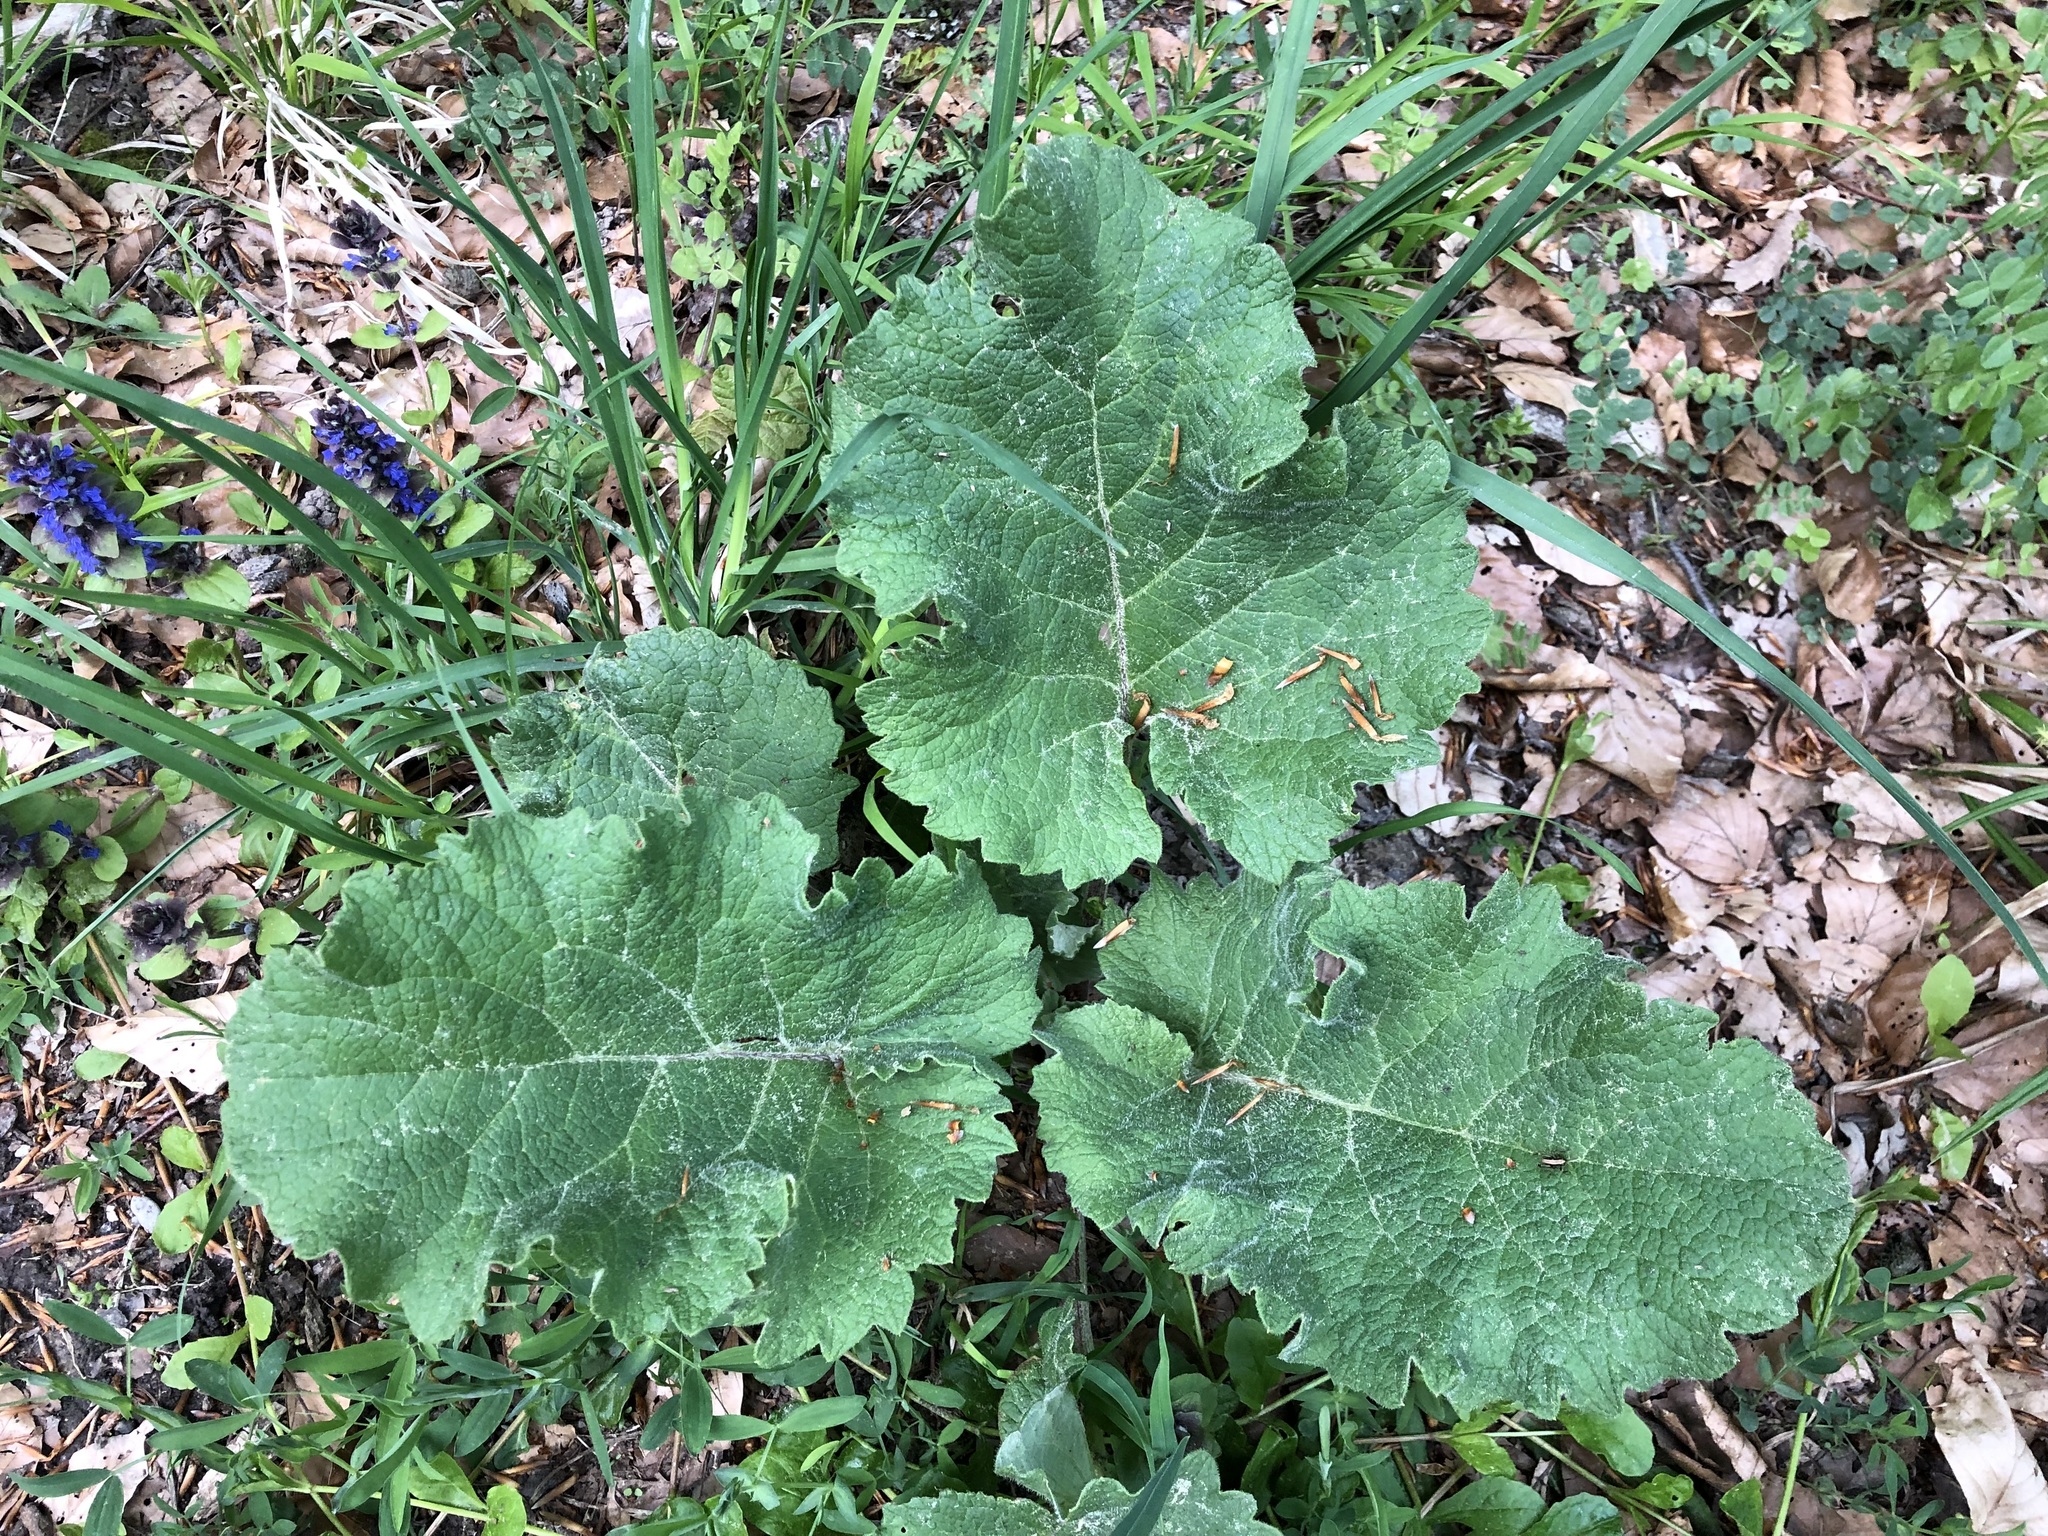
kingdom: Plantae
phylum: Tracheophyta
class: Magnoliopsida
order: Asterales
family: Asteraceae
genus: Arctium
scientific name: Arctium lappa
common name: Greater burdock
